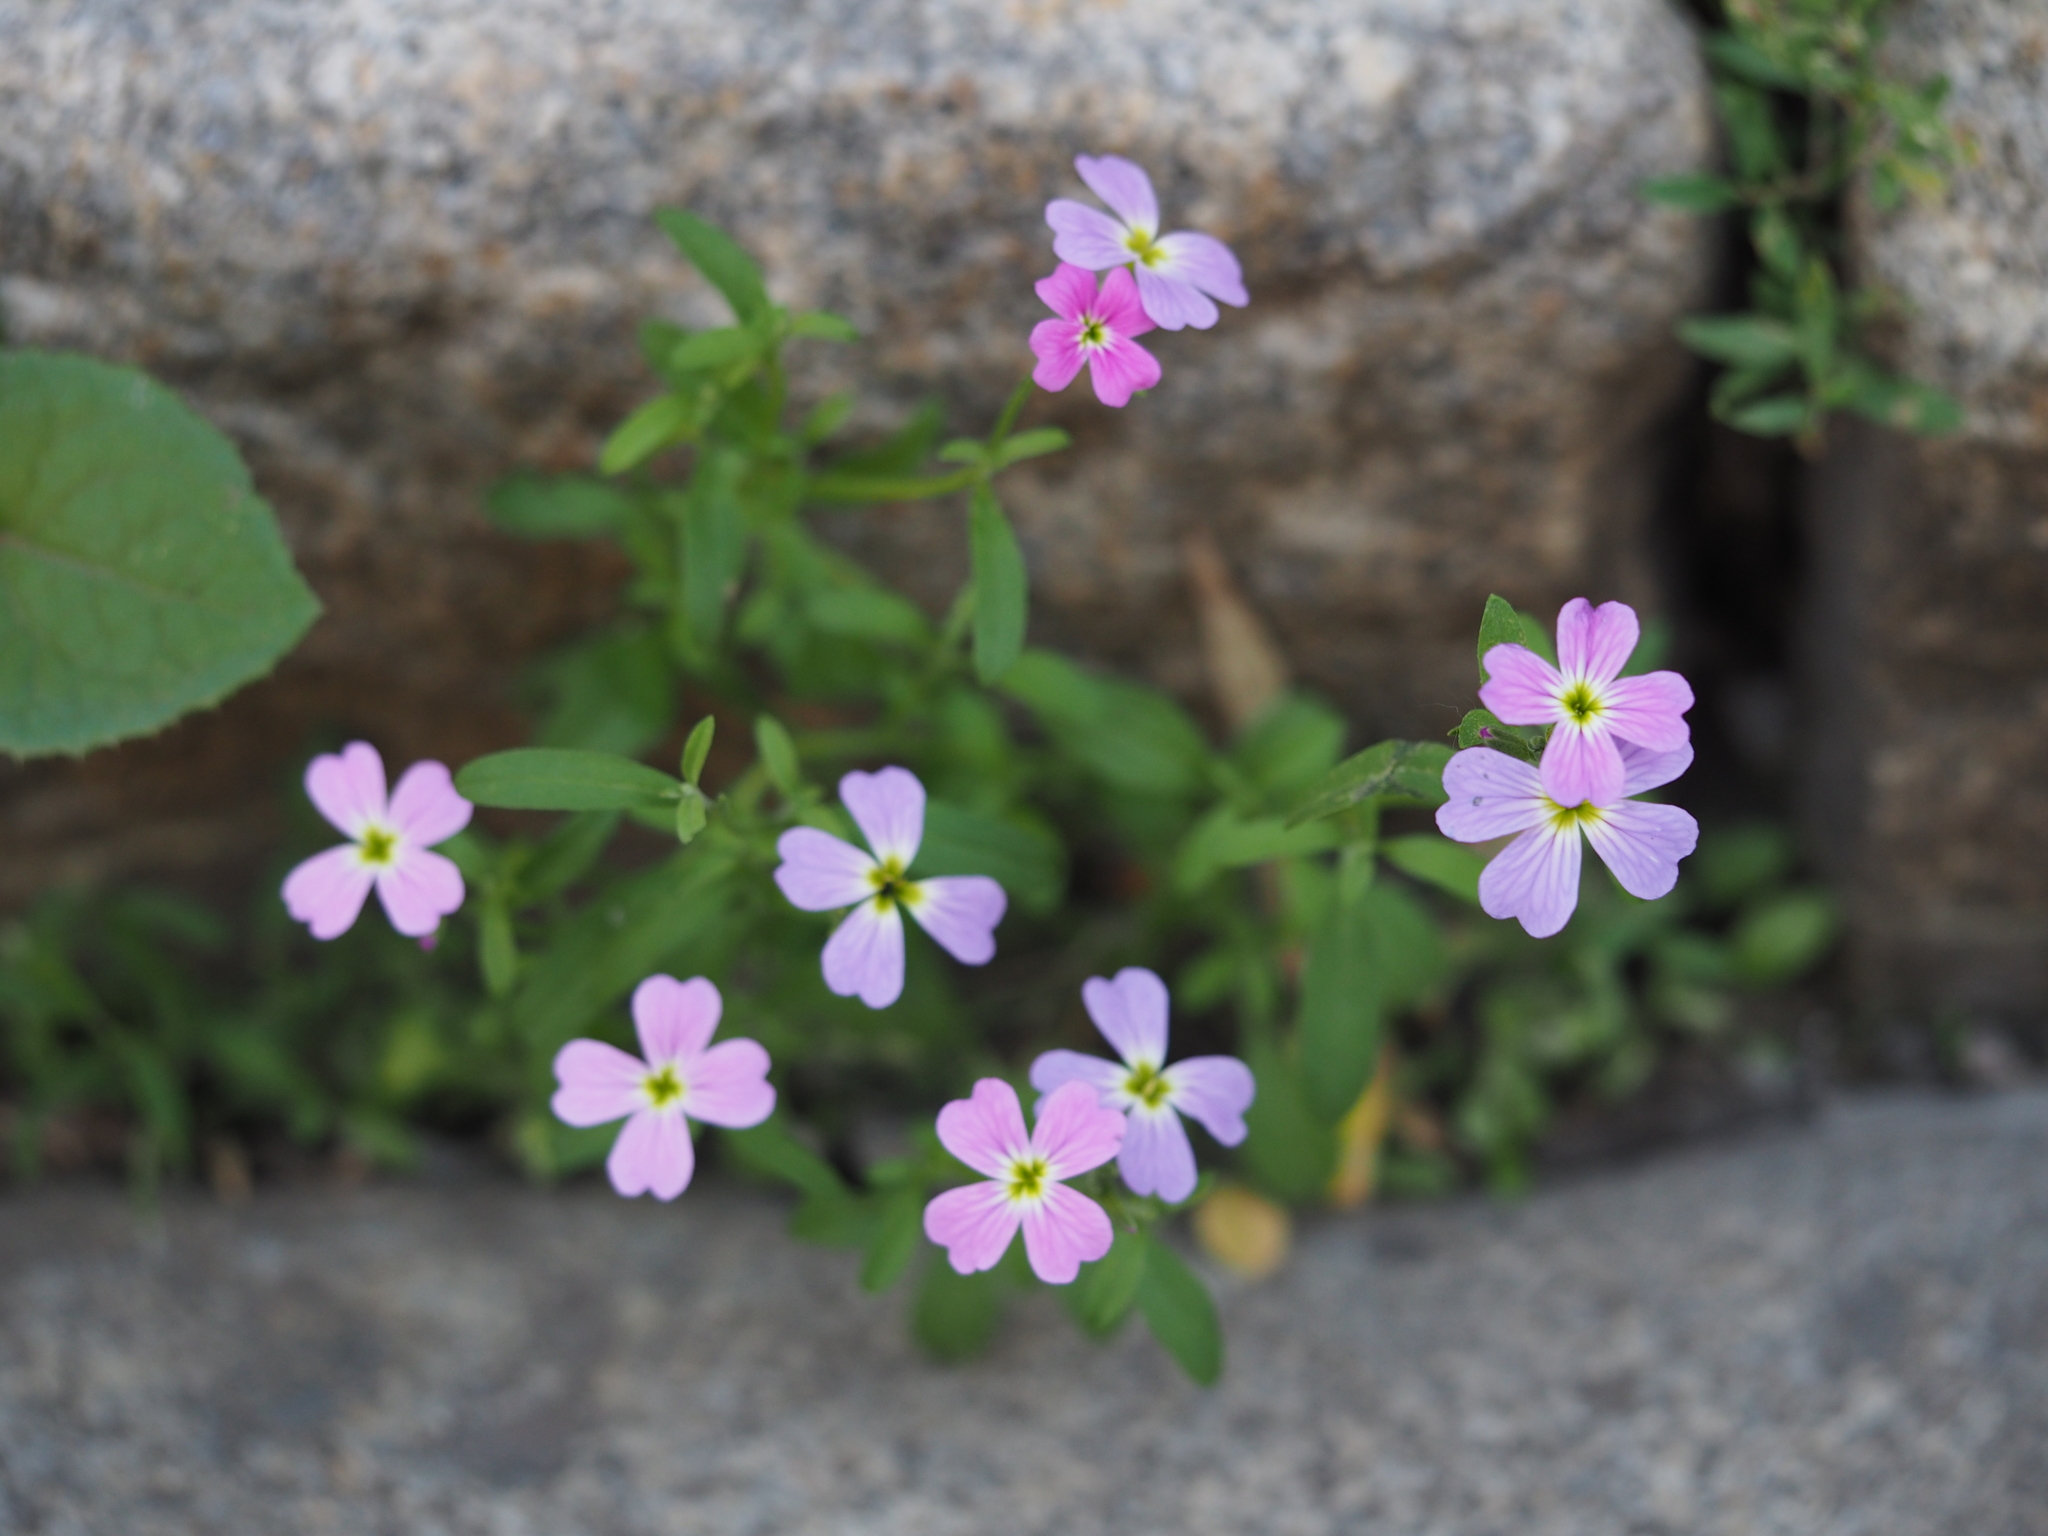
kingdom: Plantae
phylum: Tracheophyta
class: Magnoliopsida
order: Brassicales
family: Brassicaceae
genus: Malcolmia
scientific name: Malcolmia maritima
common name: Virginia stock
